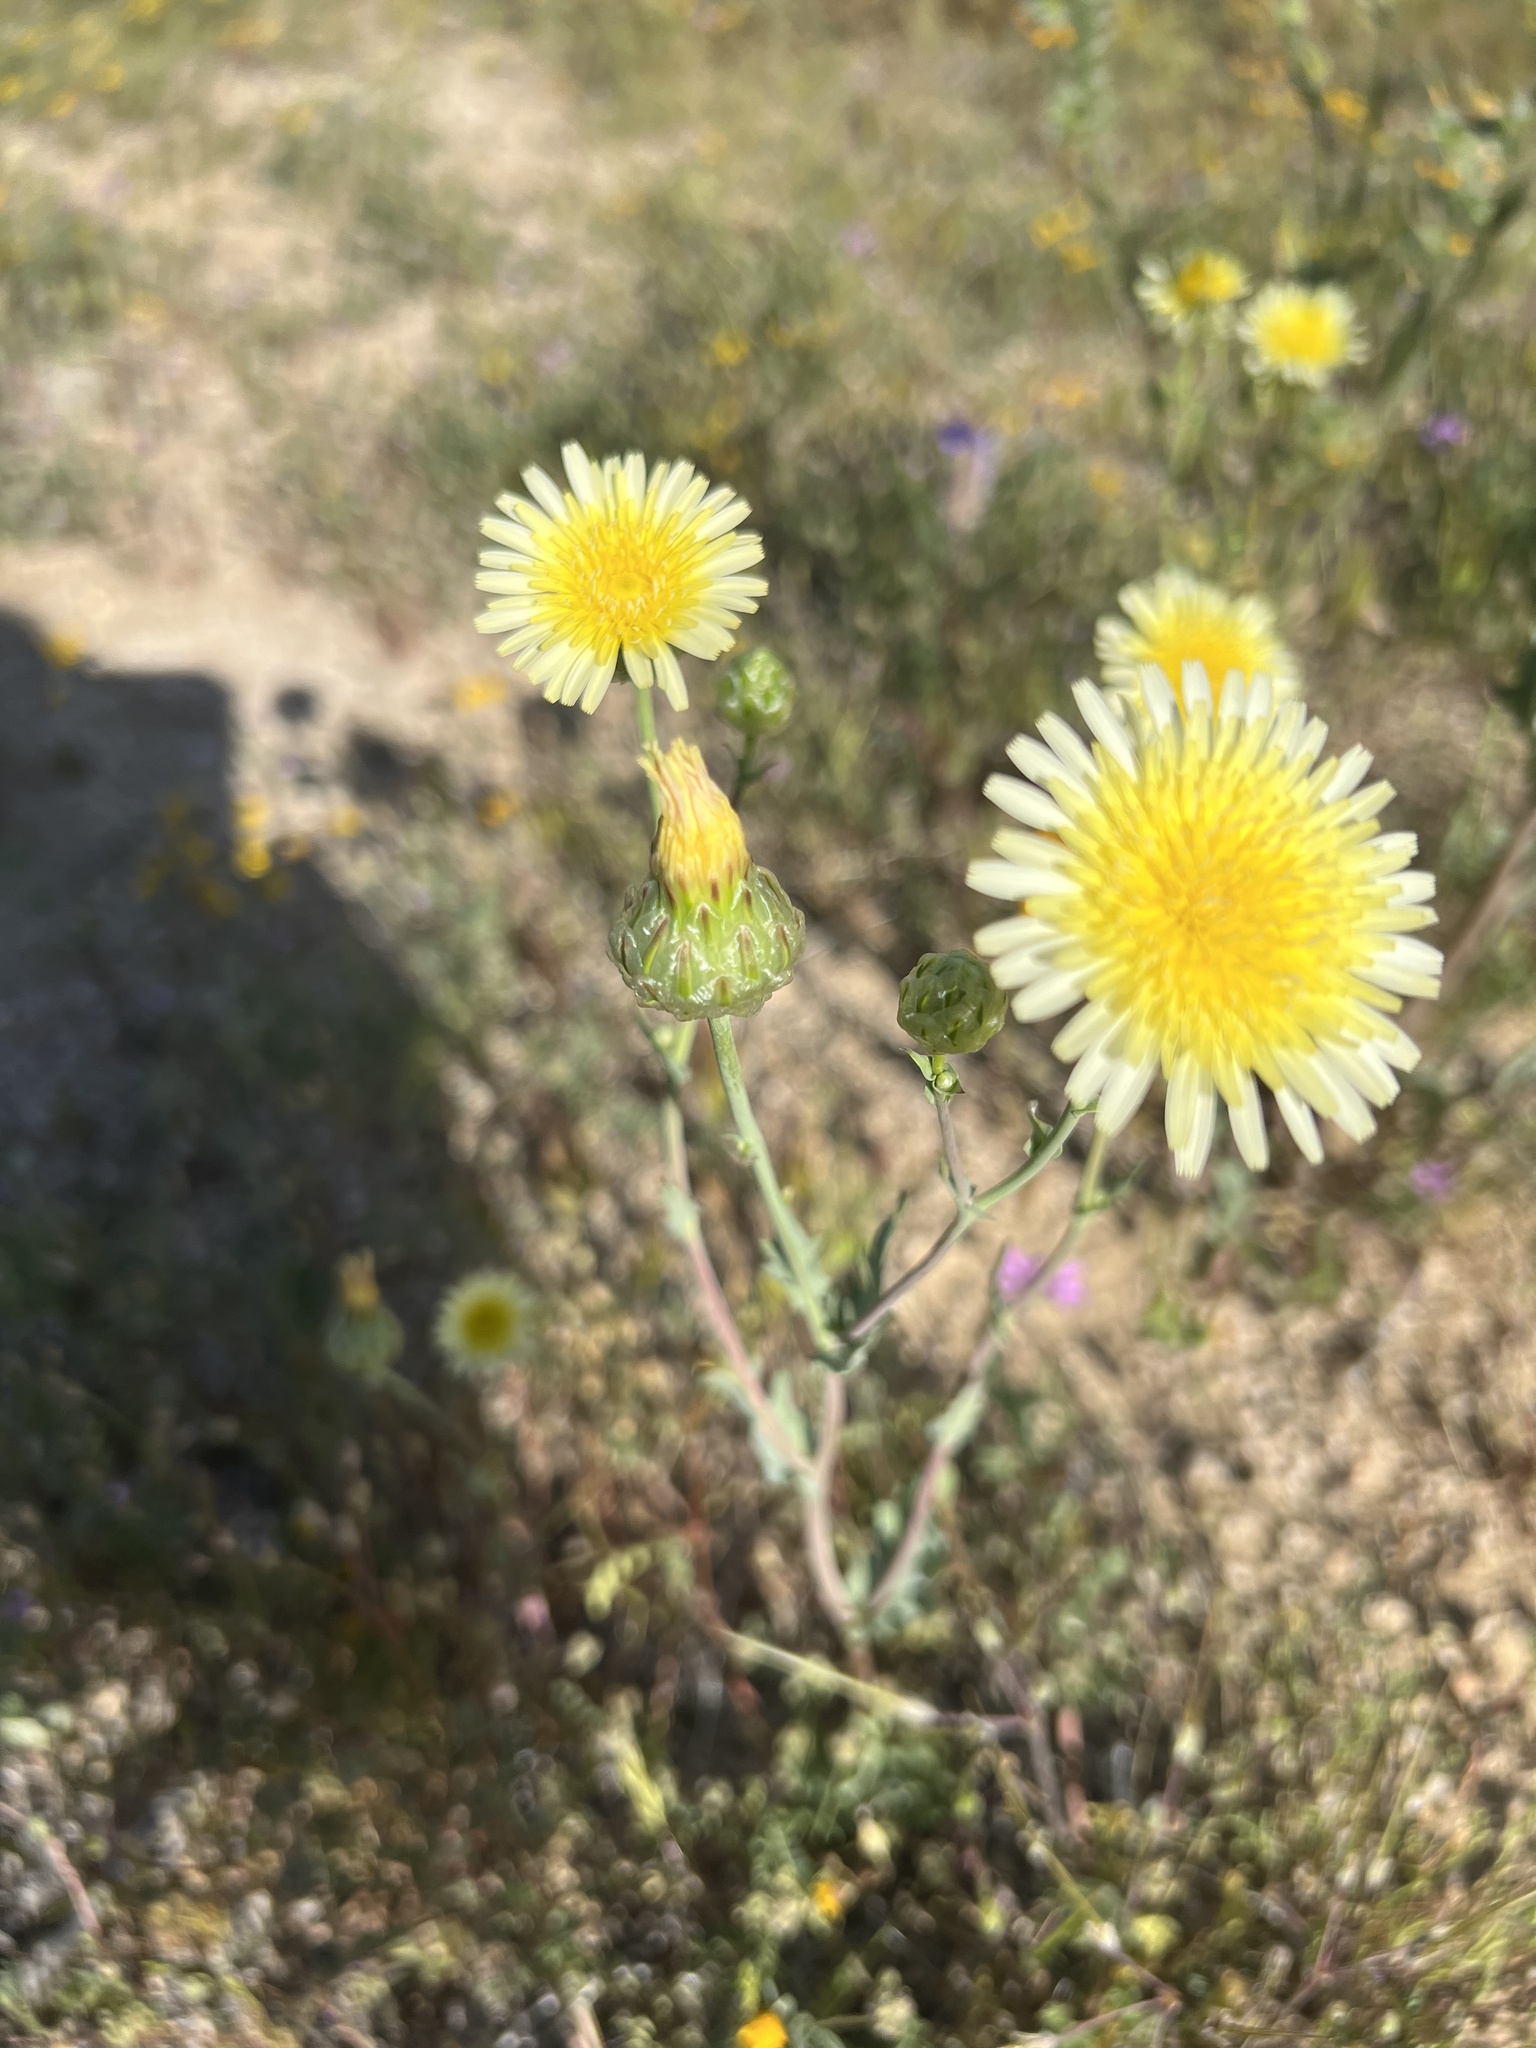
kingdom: Plantae
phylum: Tracheophyta
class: Magnoliopsida
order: Asterales
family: Asteraceae
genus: Malacothrix
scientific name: Malacothrix coulteri
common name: Snake's-head
